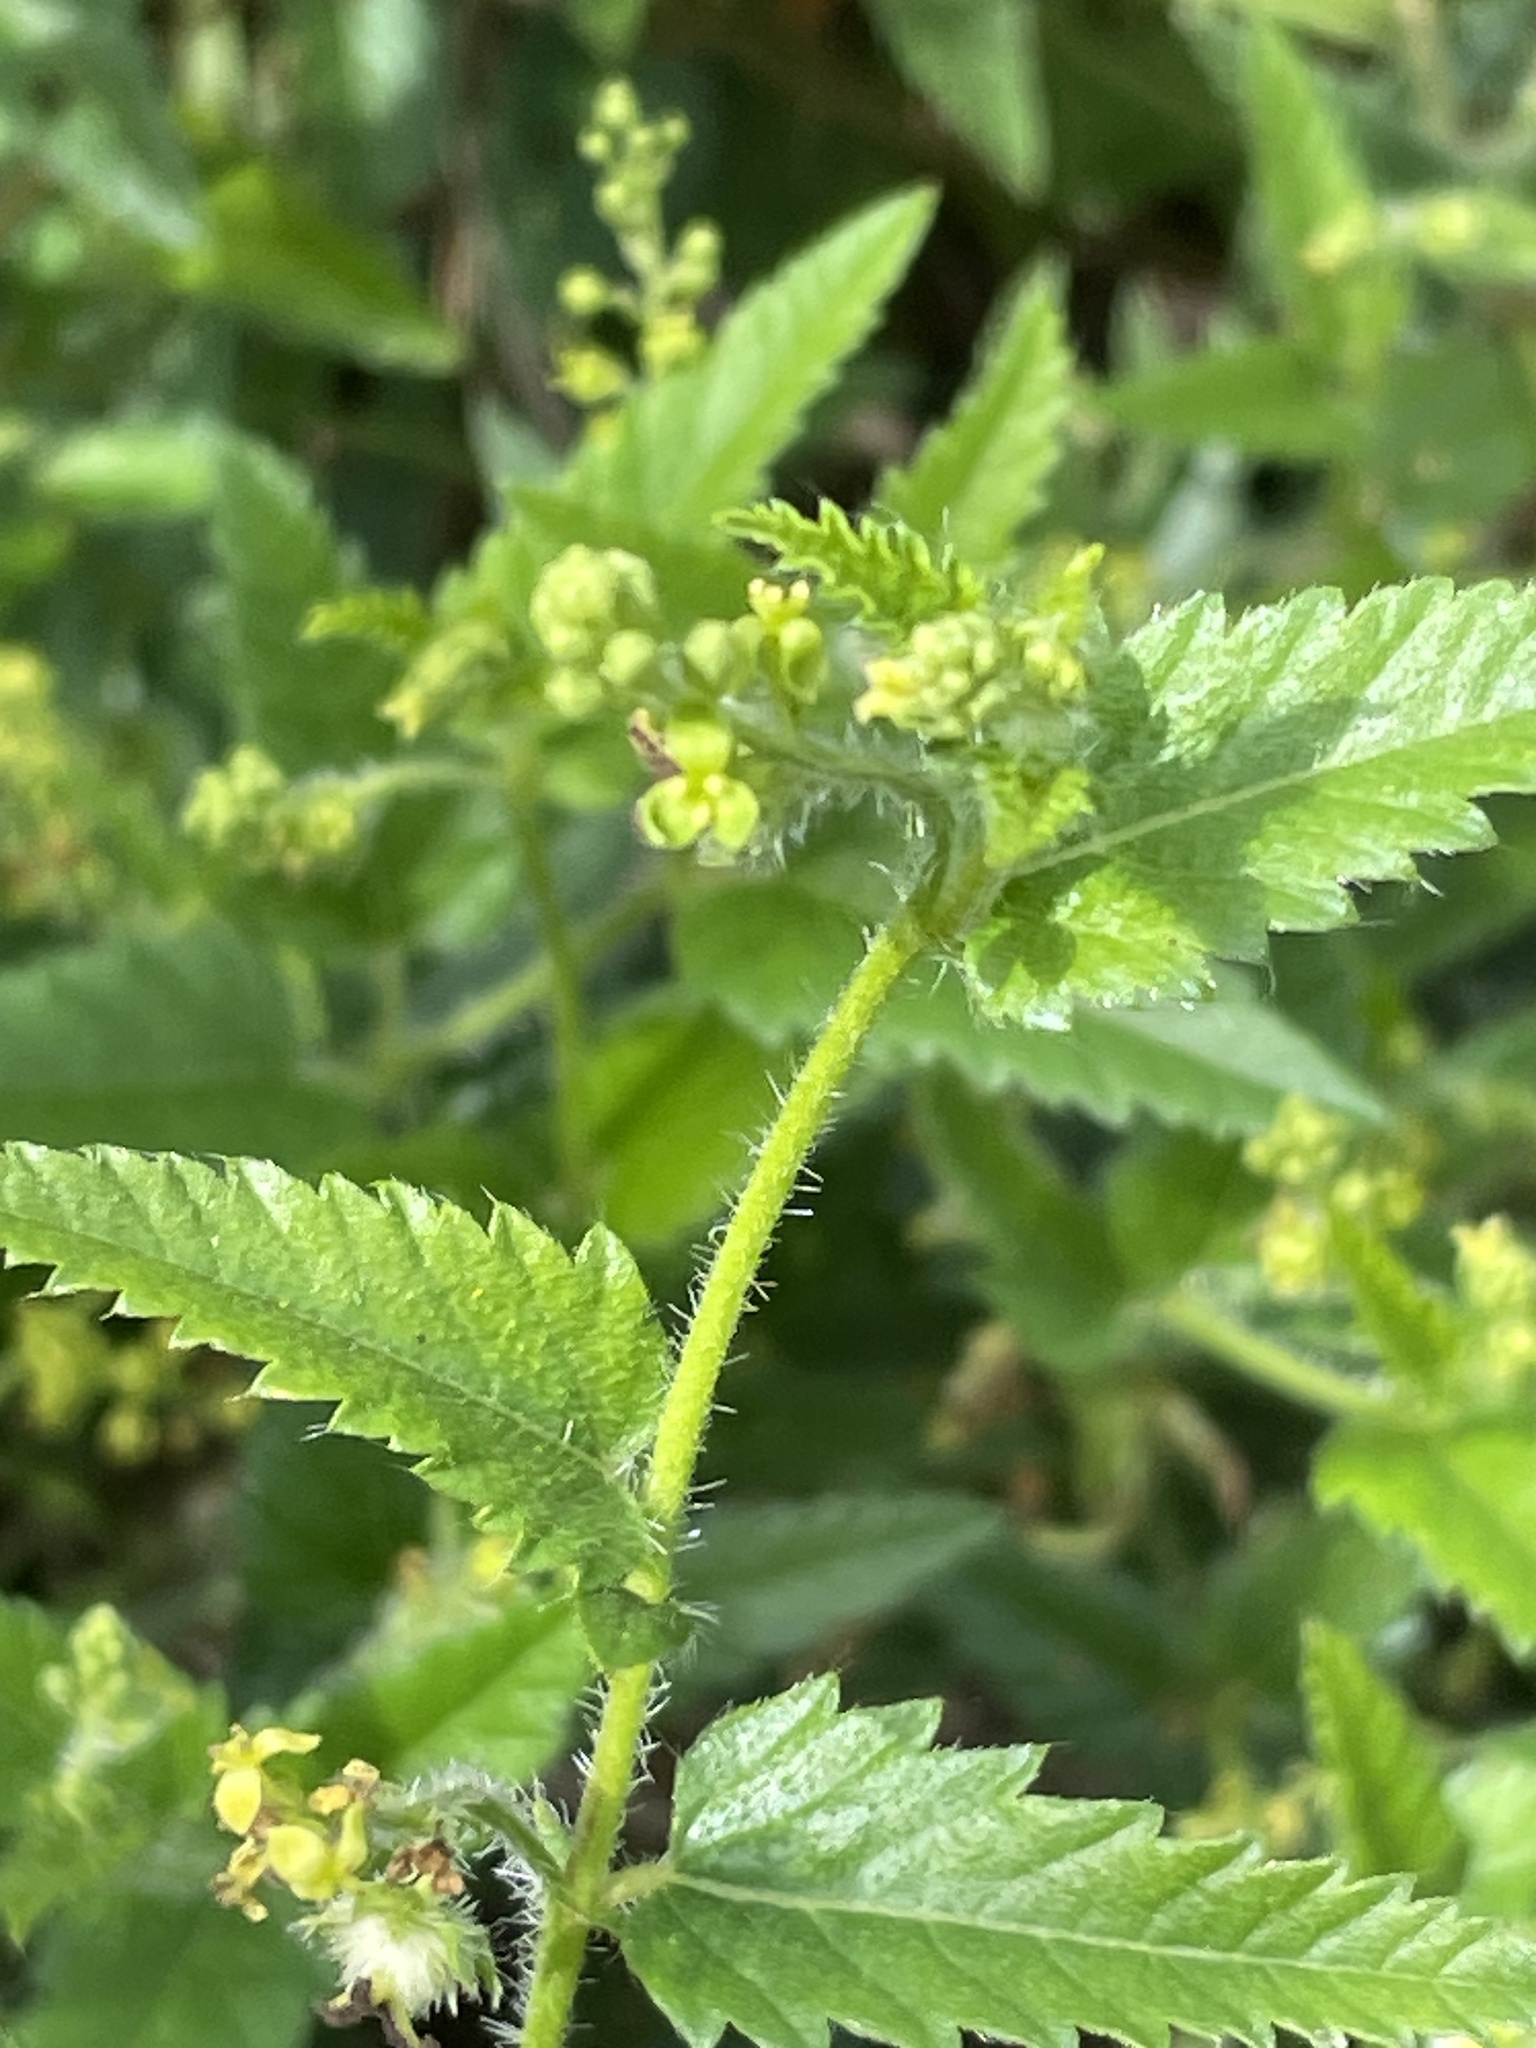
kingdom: Plantae
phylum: Tracheophyta
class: Magnoliopsida
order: Malpighiales
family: Euphorbiaceae
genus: Tragia
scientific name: Tragia urticifolia
